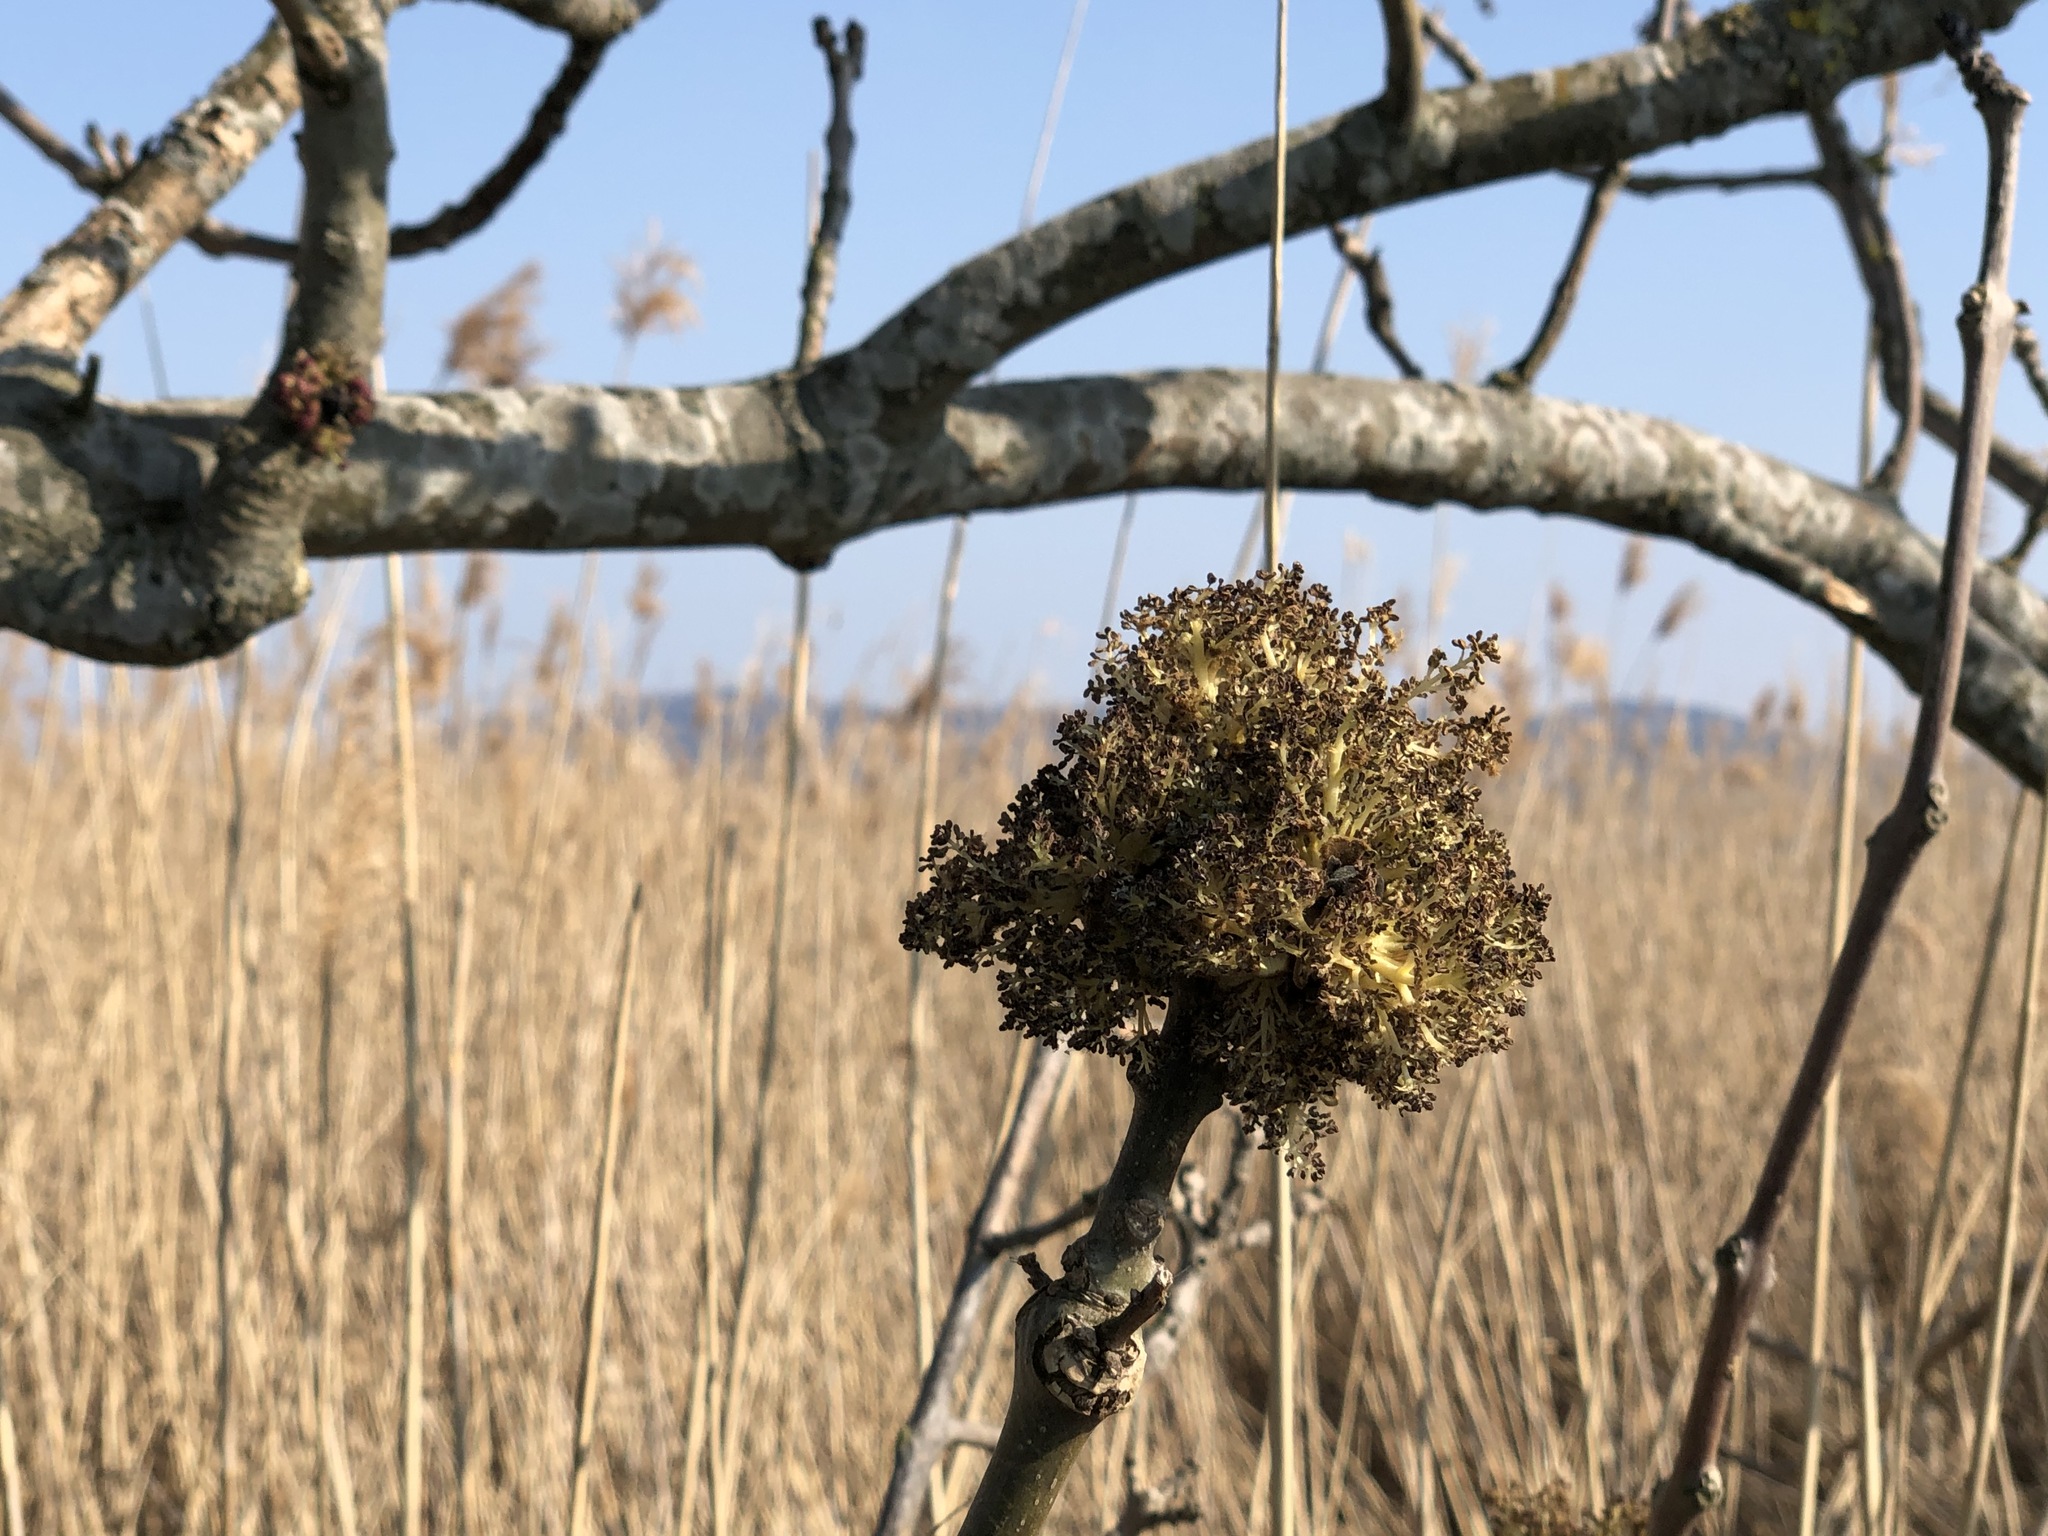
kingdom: Plantae
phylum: Tracheophyta
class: Magnoliopsida
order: Lamiales
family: Oleaceae
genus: Fraxinus
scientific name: Fraxinus excelsior
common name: European ash
